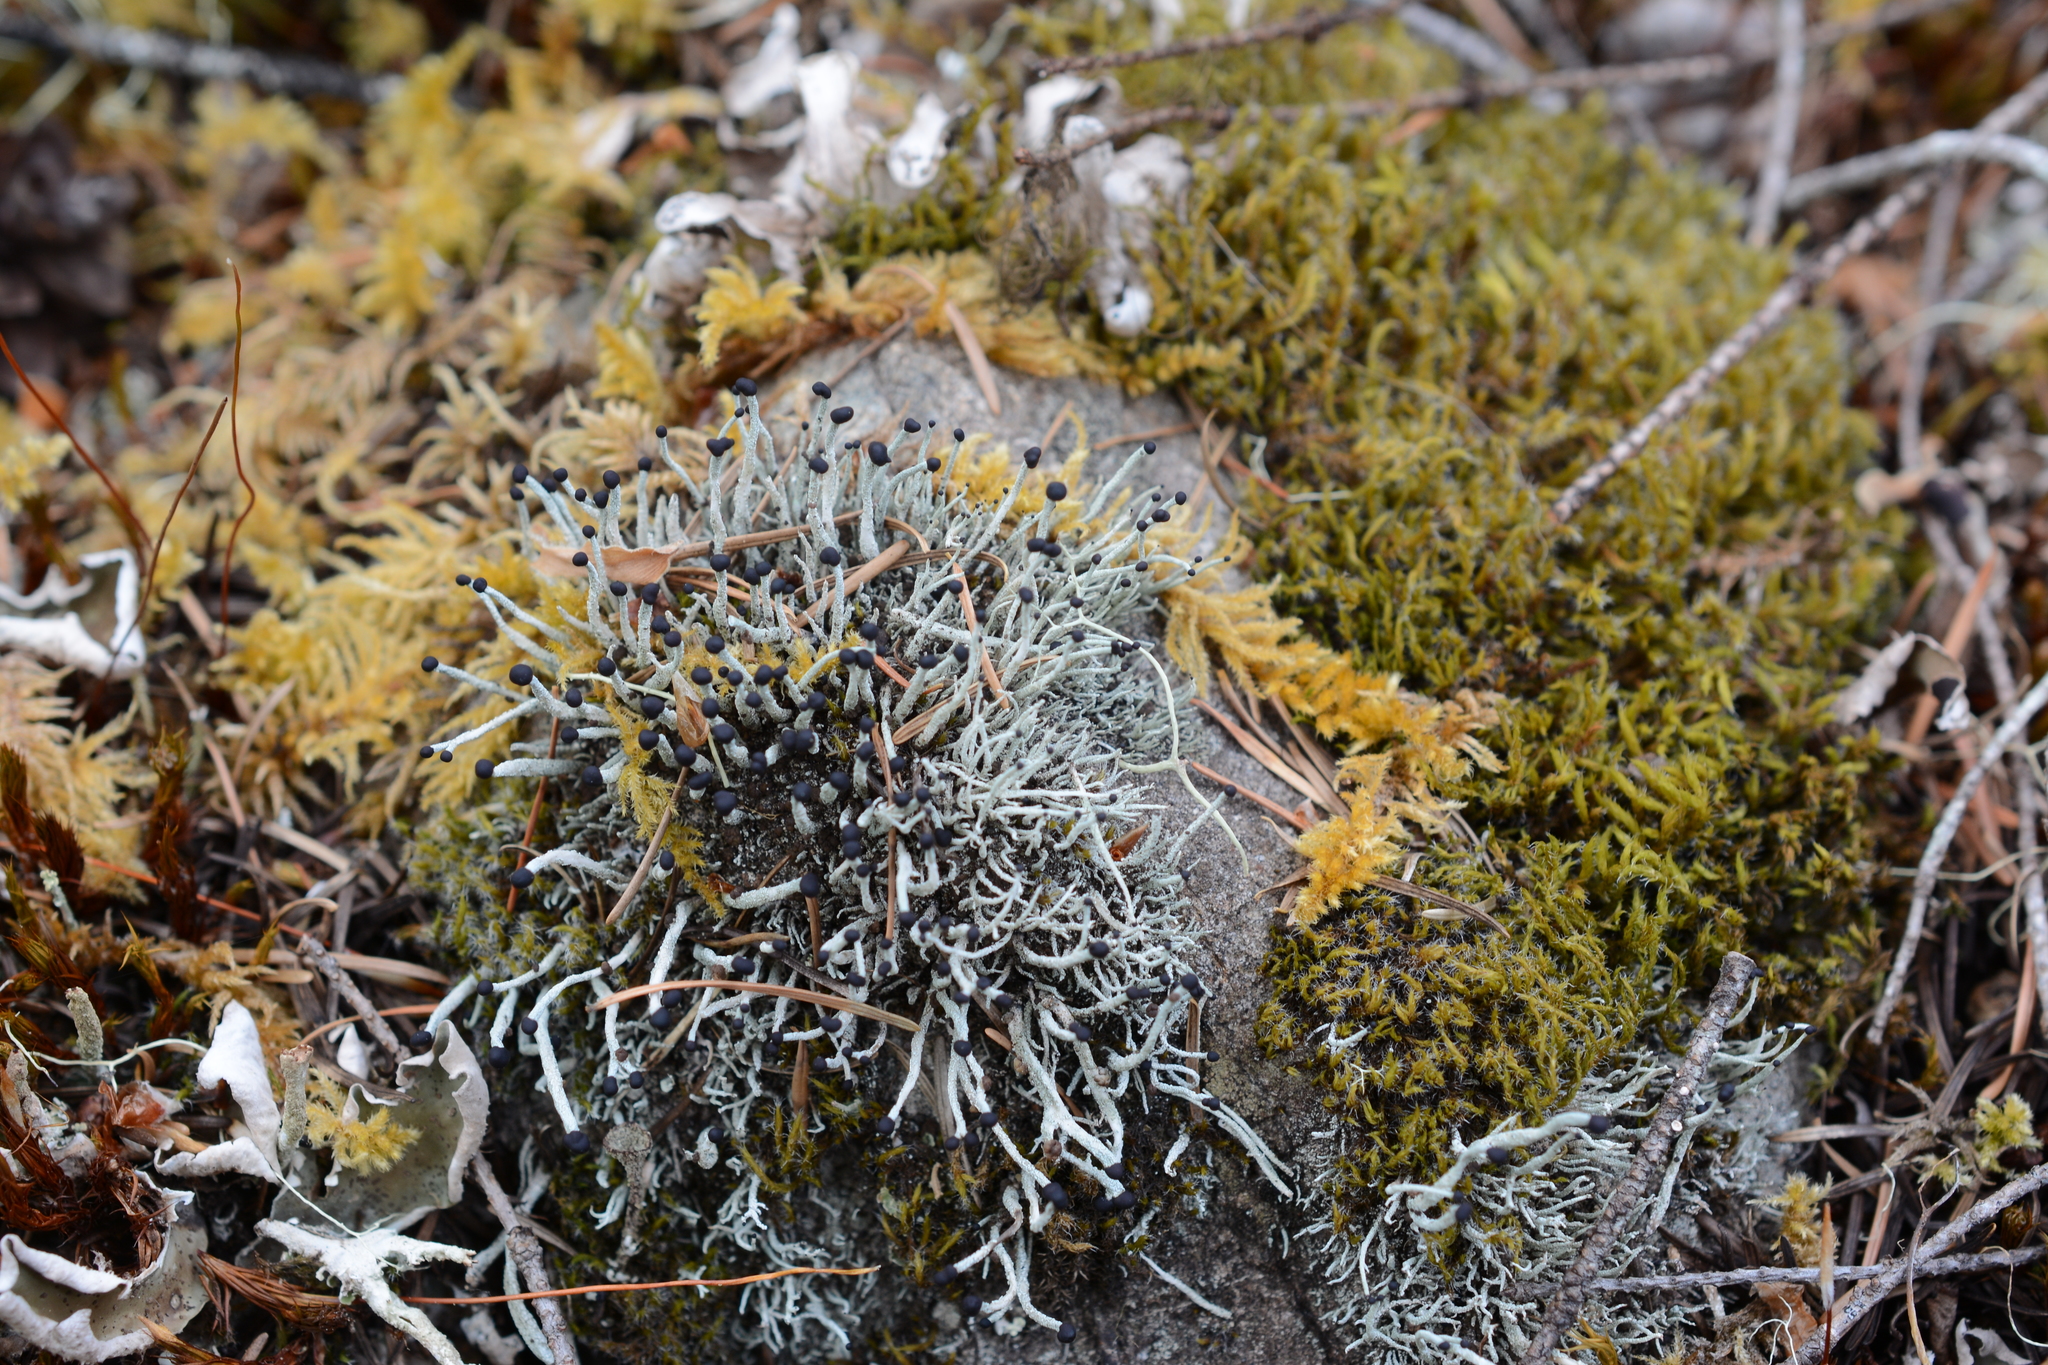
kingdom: Fungi
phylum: Ascomycota
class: Lecanoromycetes
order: Lecanorales
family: Cladoniaceae
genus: Pilophorus
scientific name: Pilophorus acicularis
